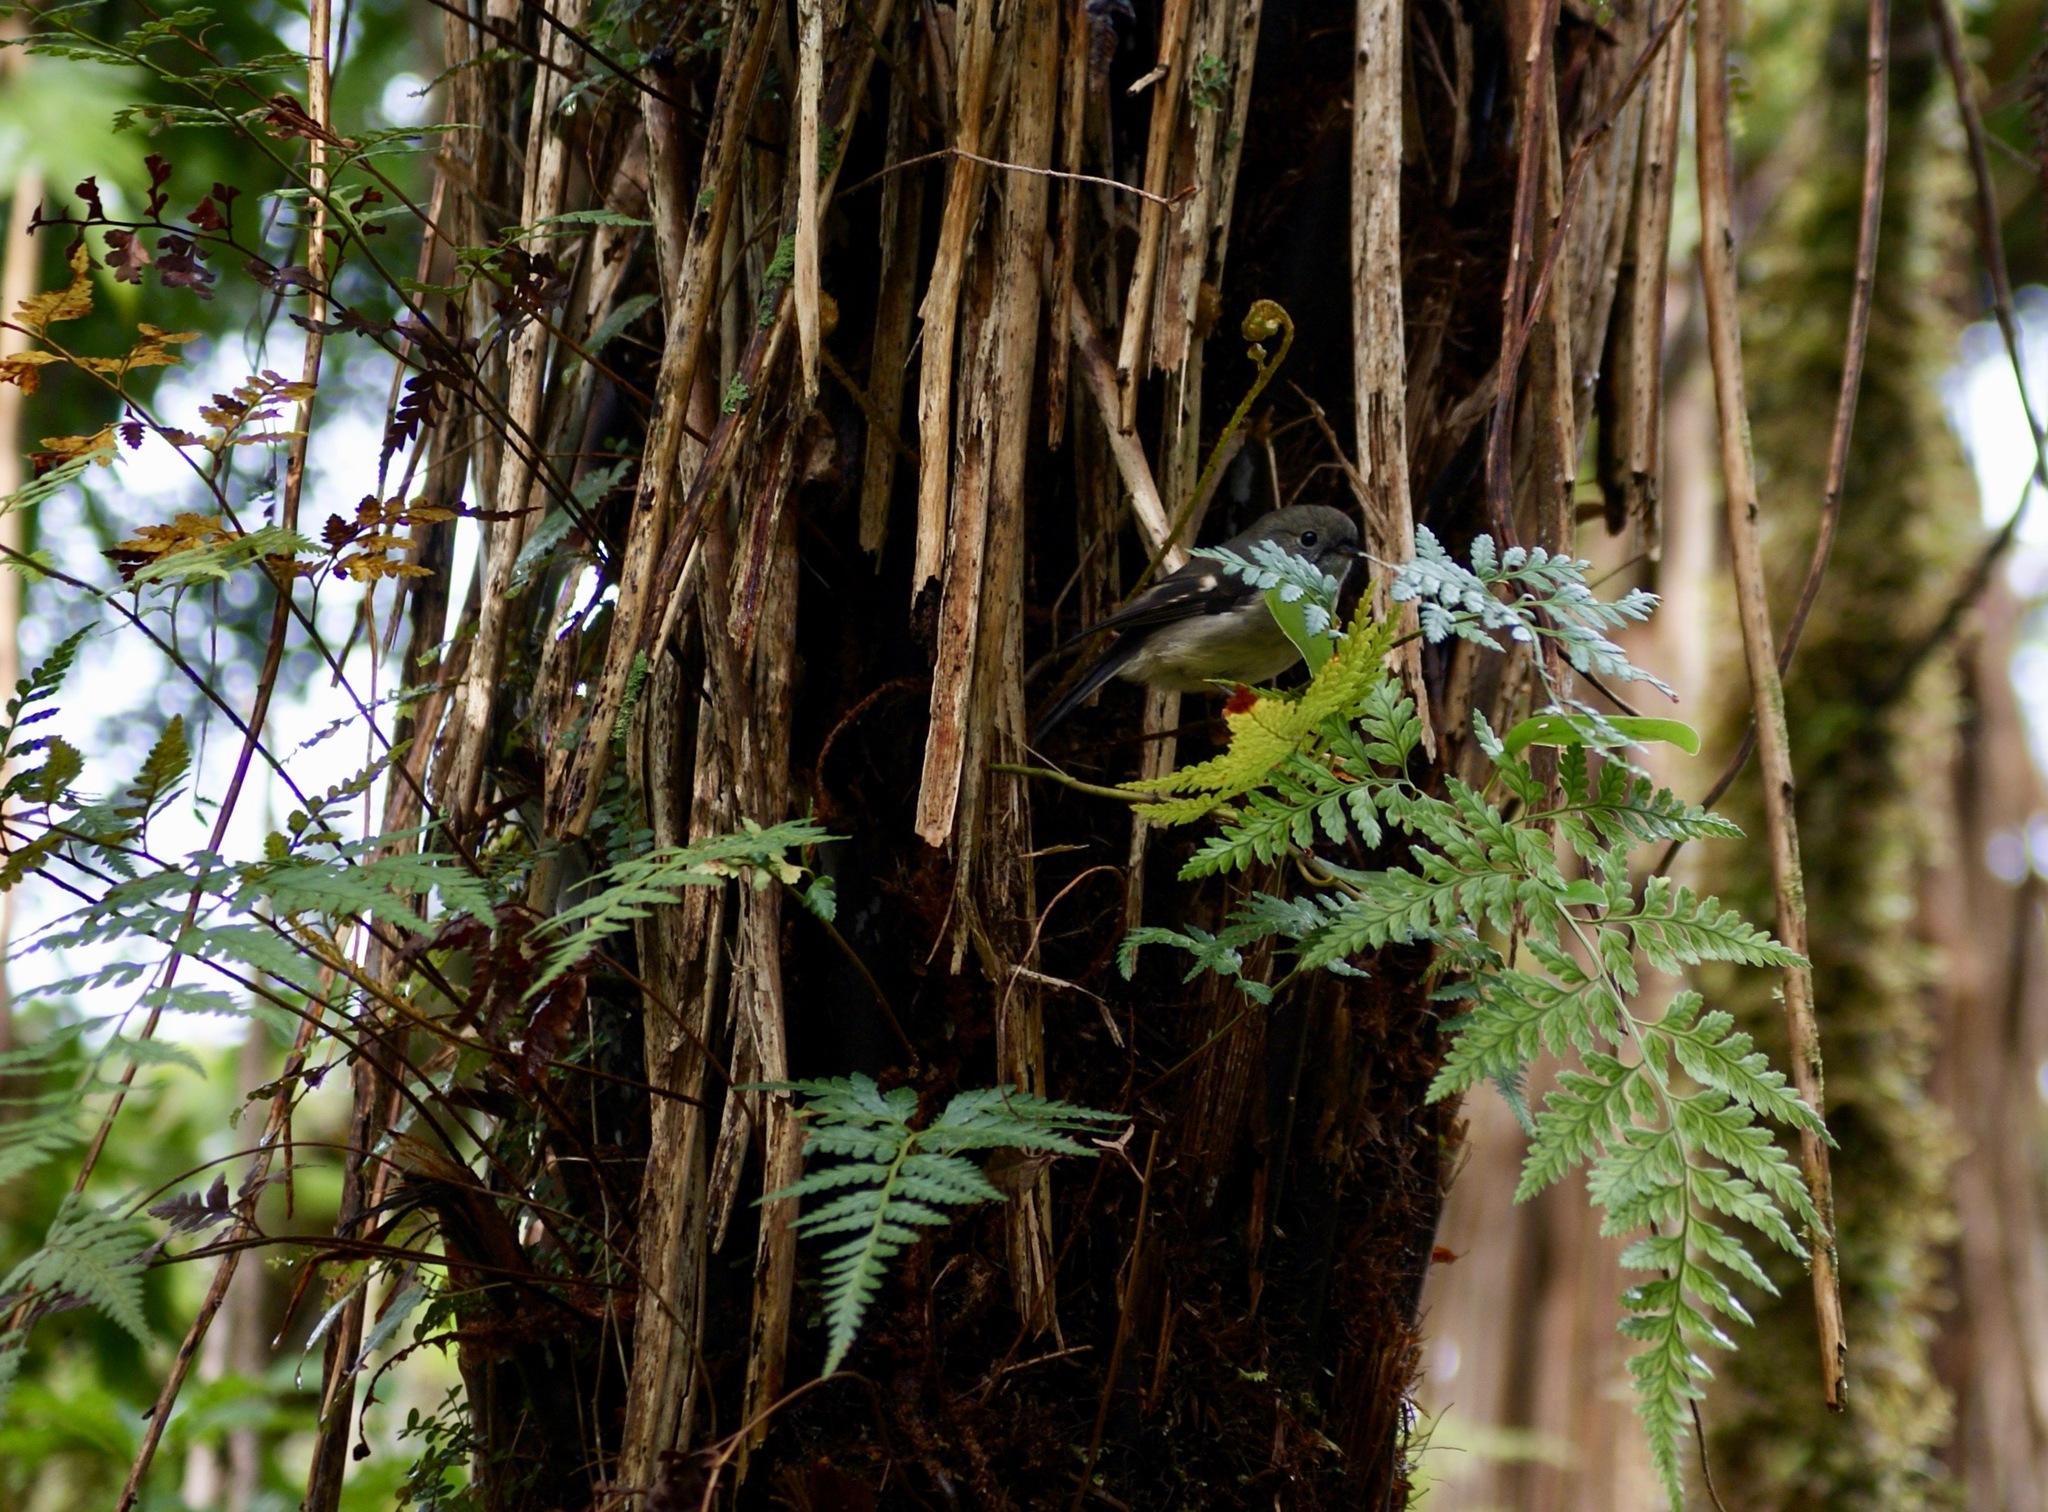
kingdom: Animalia
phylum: Chordata
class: Aves
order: Passeriformes
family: Petroicidae
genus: Petroica
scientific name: Petroica macrocephala
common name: Tomtit
